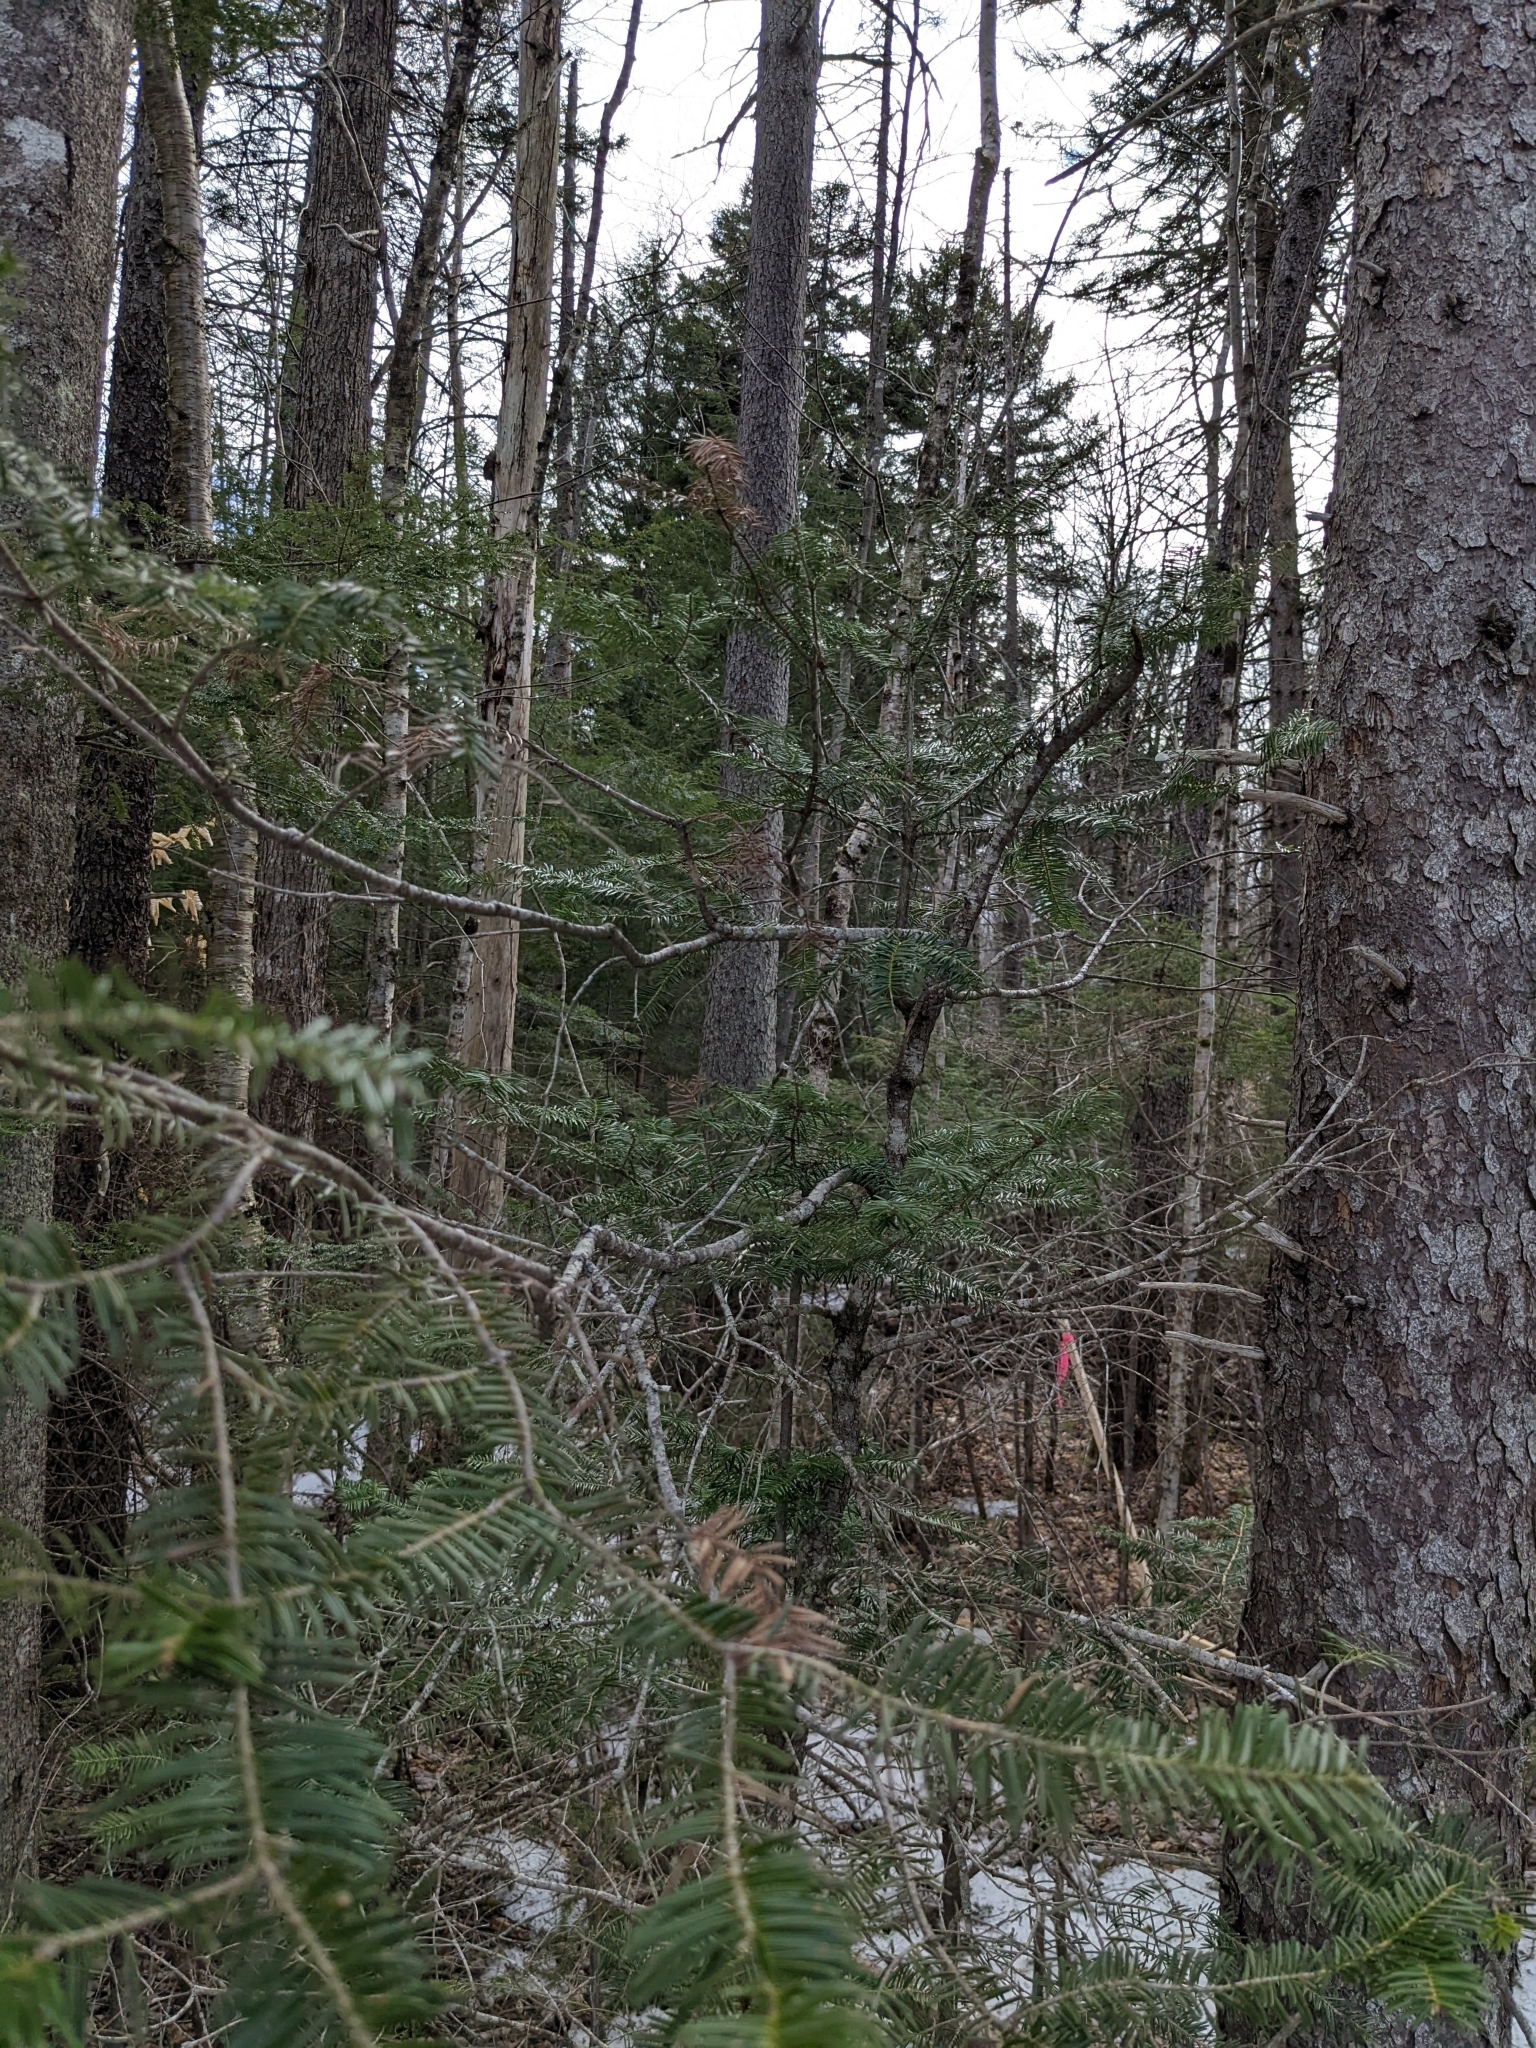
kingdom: Plantae
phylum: Tracheophyta
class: Pinopsida
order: Pinales
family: Pinaceae
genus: Abies
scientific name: Abies balsamea
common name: Balsam fir
